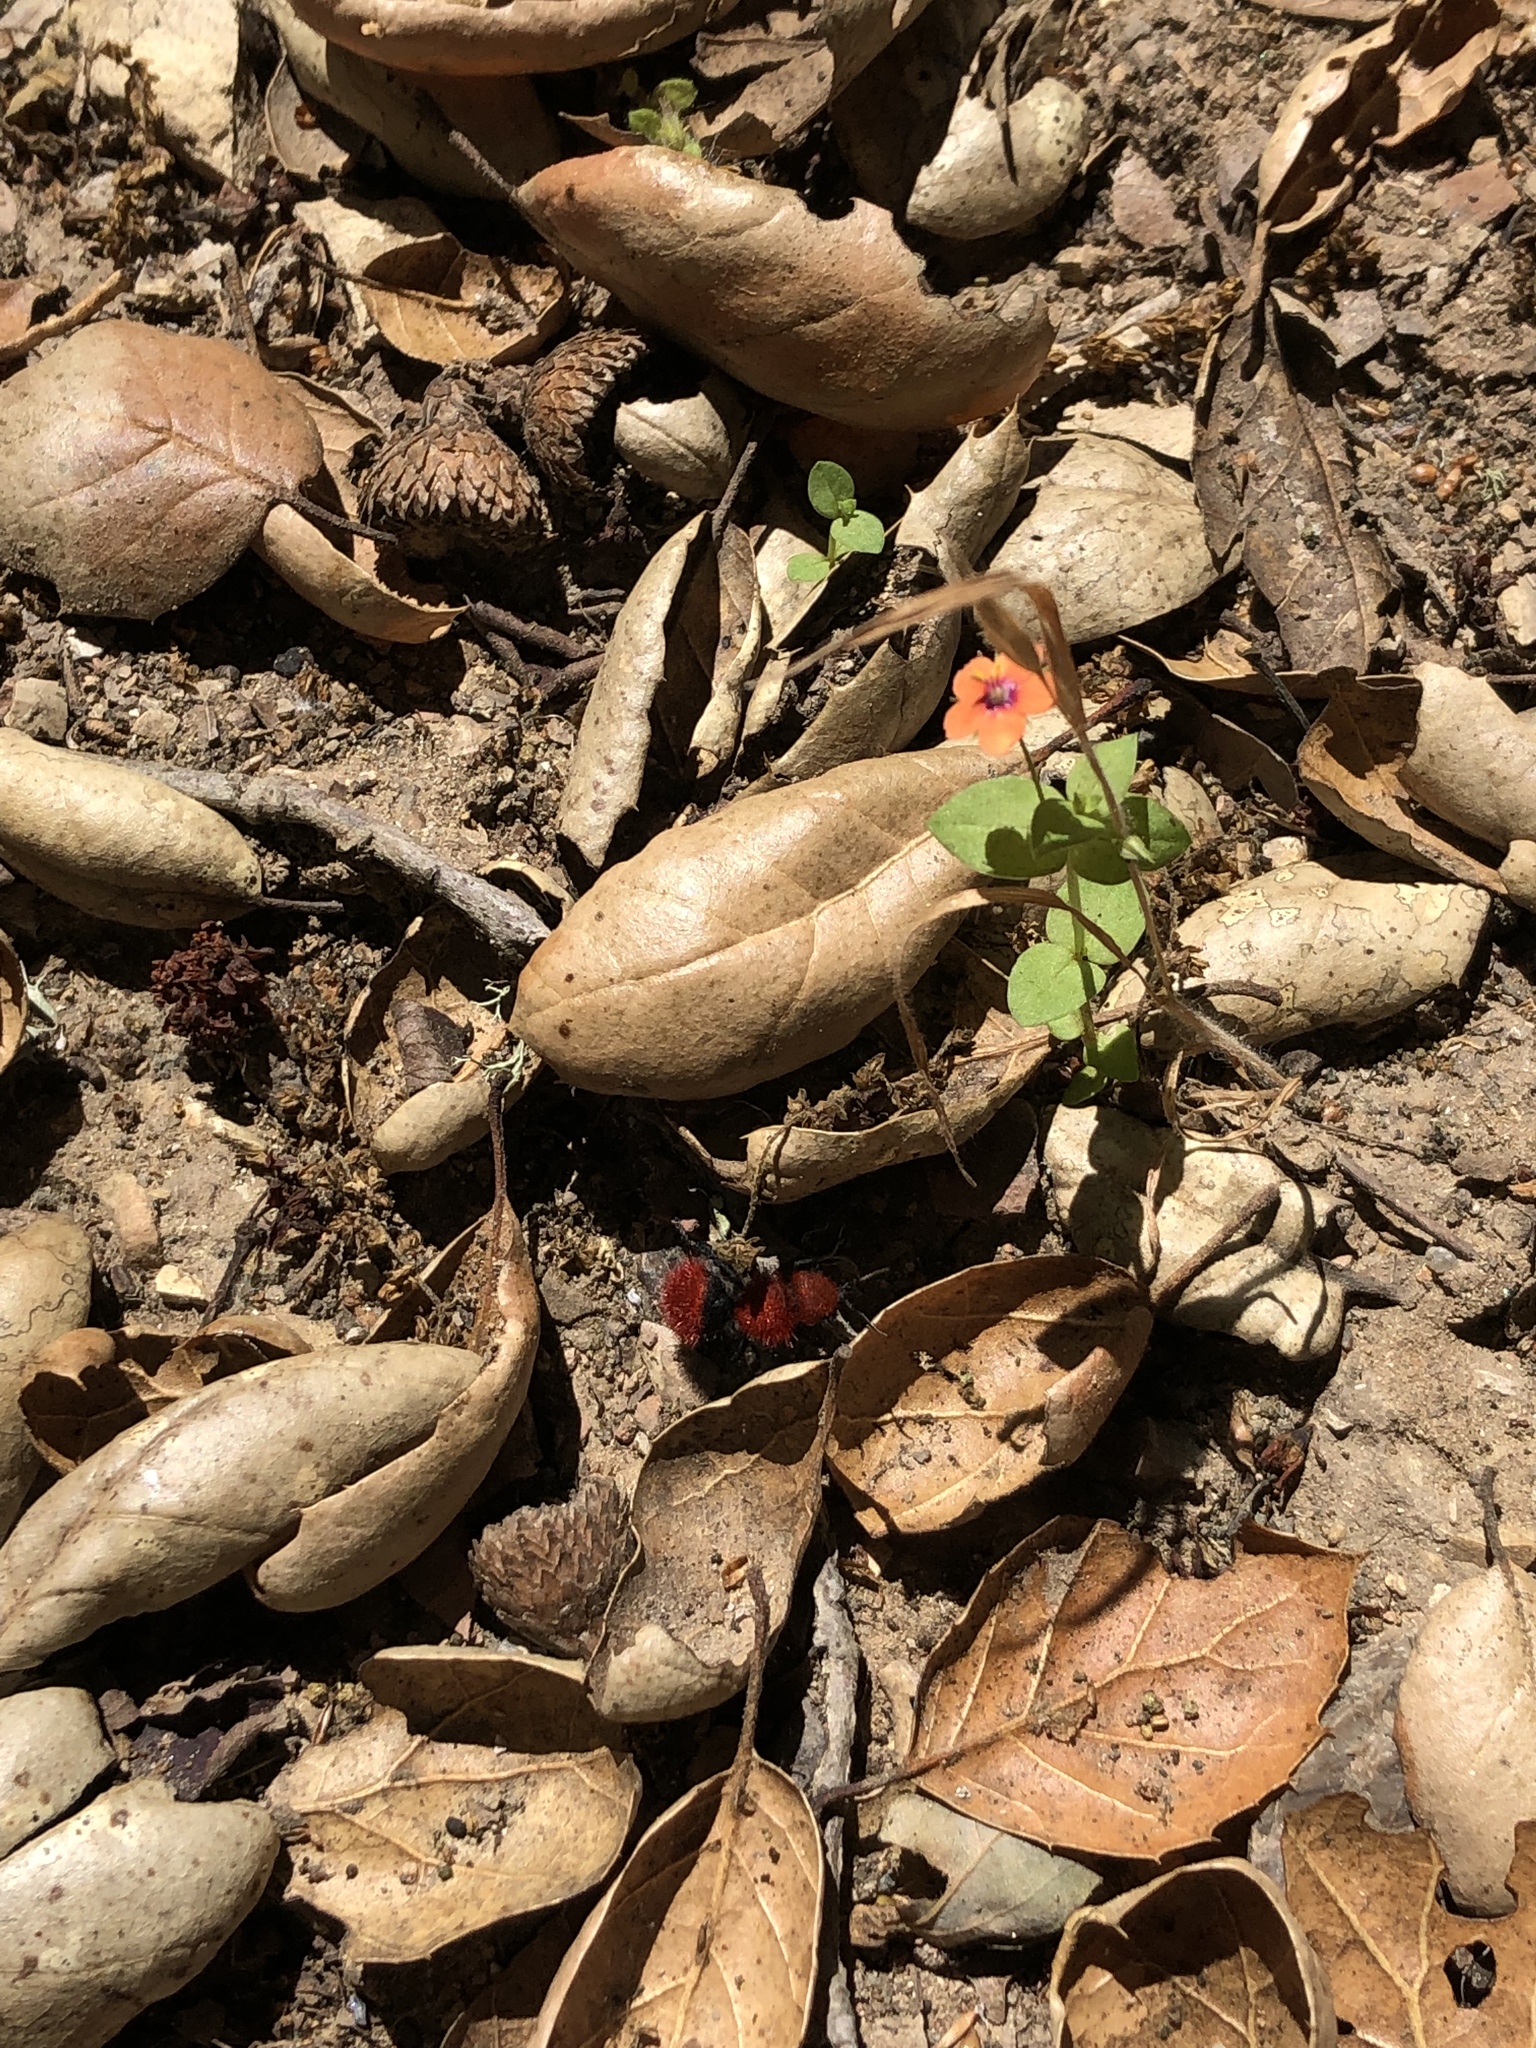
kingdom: Animalia
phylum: Arthropoda
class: Insecta
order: Hymenoptera
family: Mutillidae
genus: Dasymutilla
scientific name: Dasymutilla
